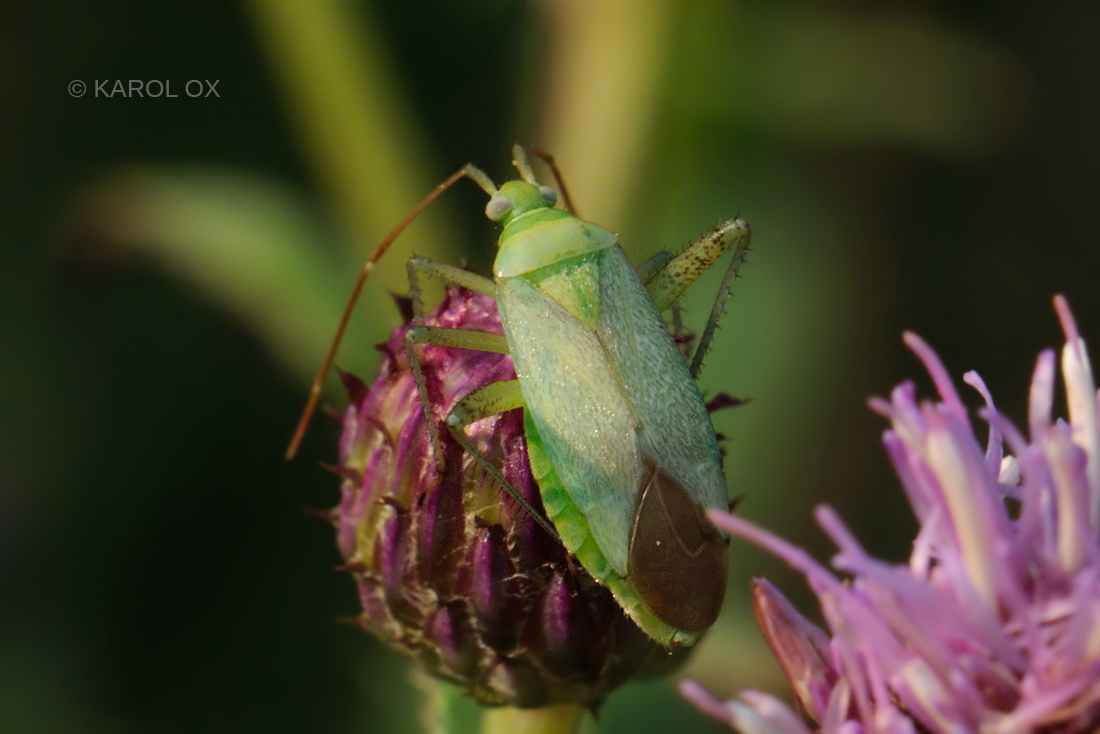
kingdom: Animalia
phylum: Arthropoda
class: Insecta
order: Hemiptera
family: Miridae
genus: Adelphocoris
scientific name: Adelphocoris quadripunctatus
